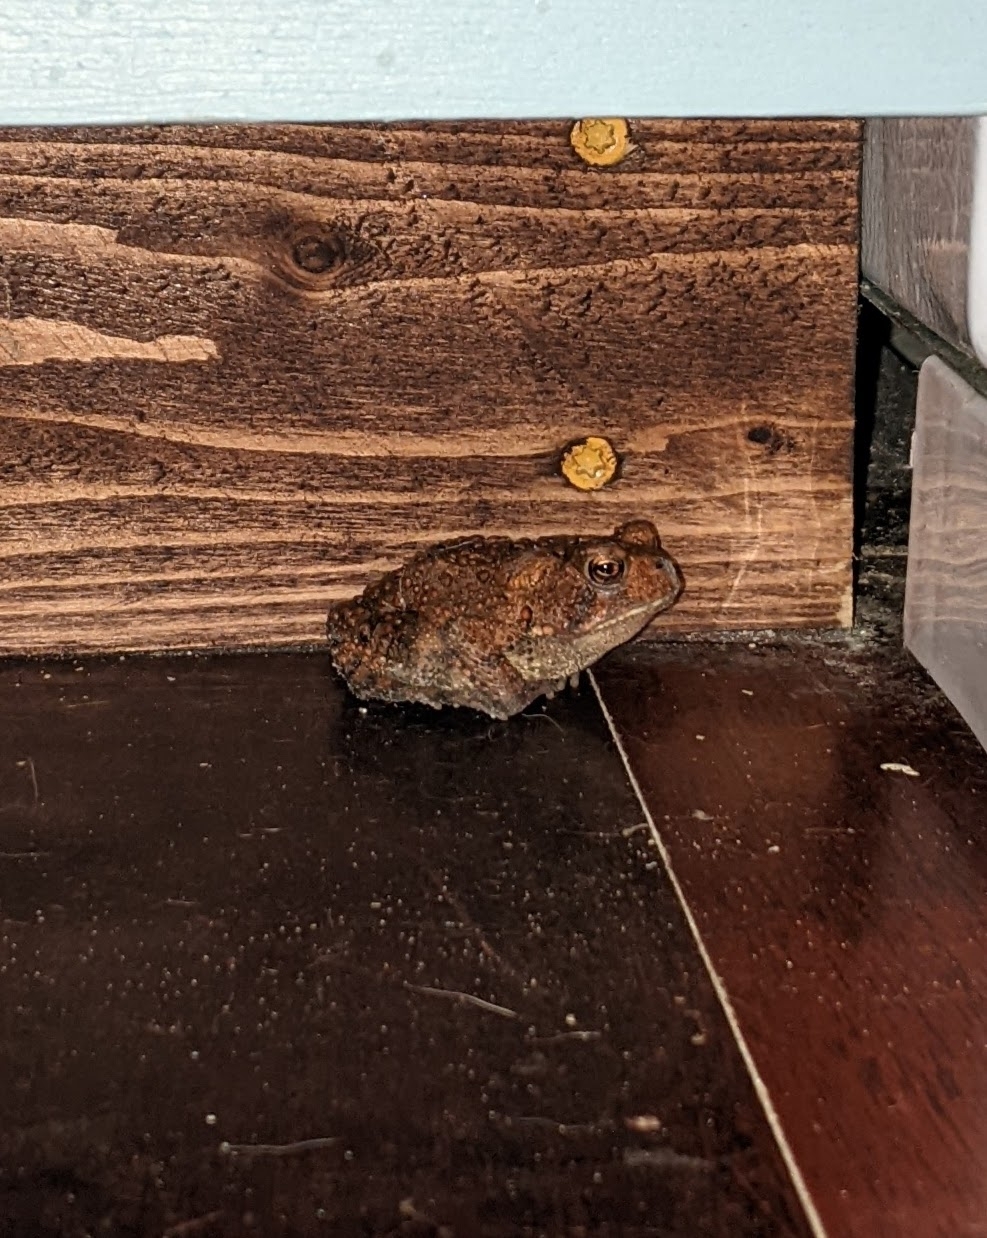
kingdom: Animalia
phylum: Chordata
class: Amphibia
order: Anura
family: Bufonidae
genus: Anaxyrus
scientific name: Anaxyrus americanus
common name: American toad
